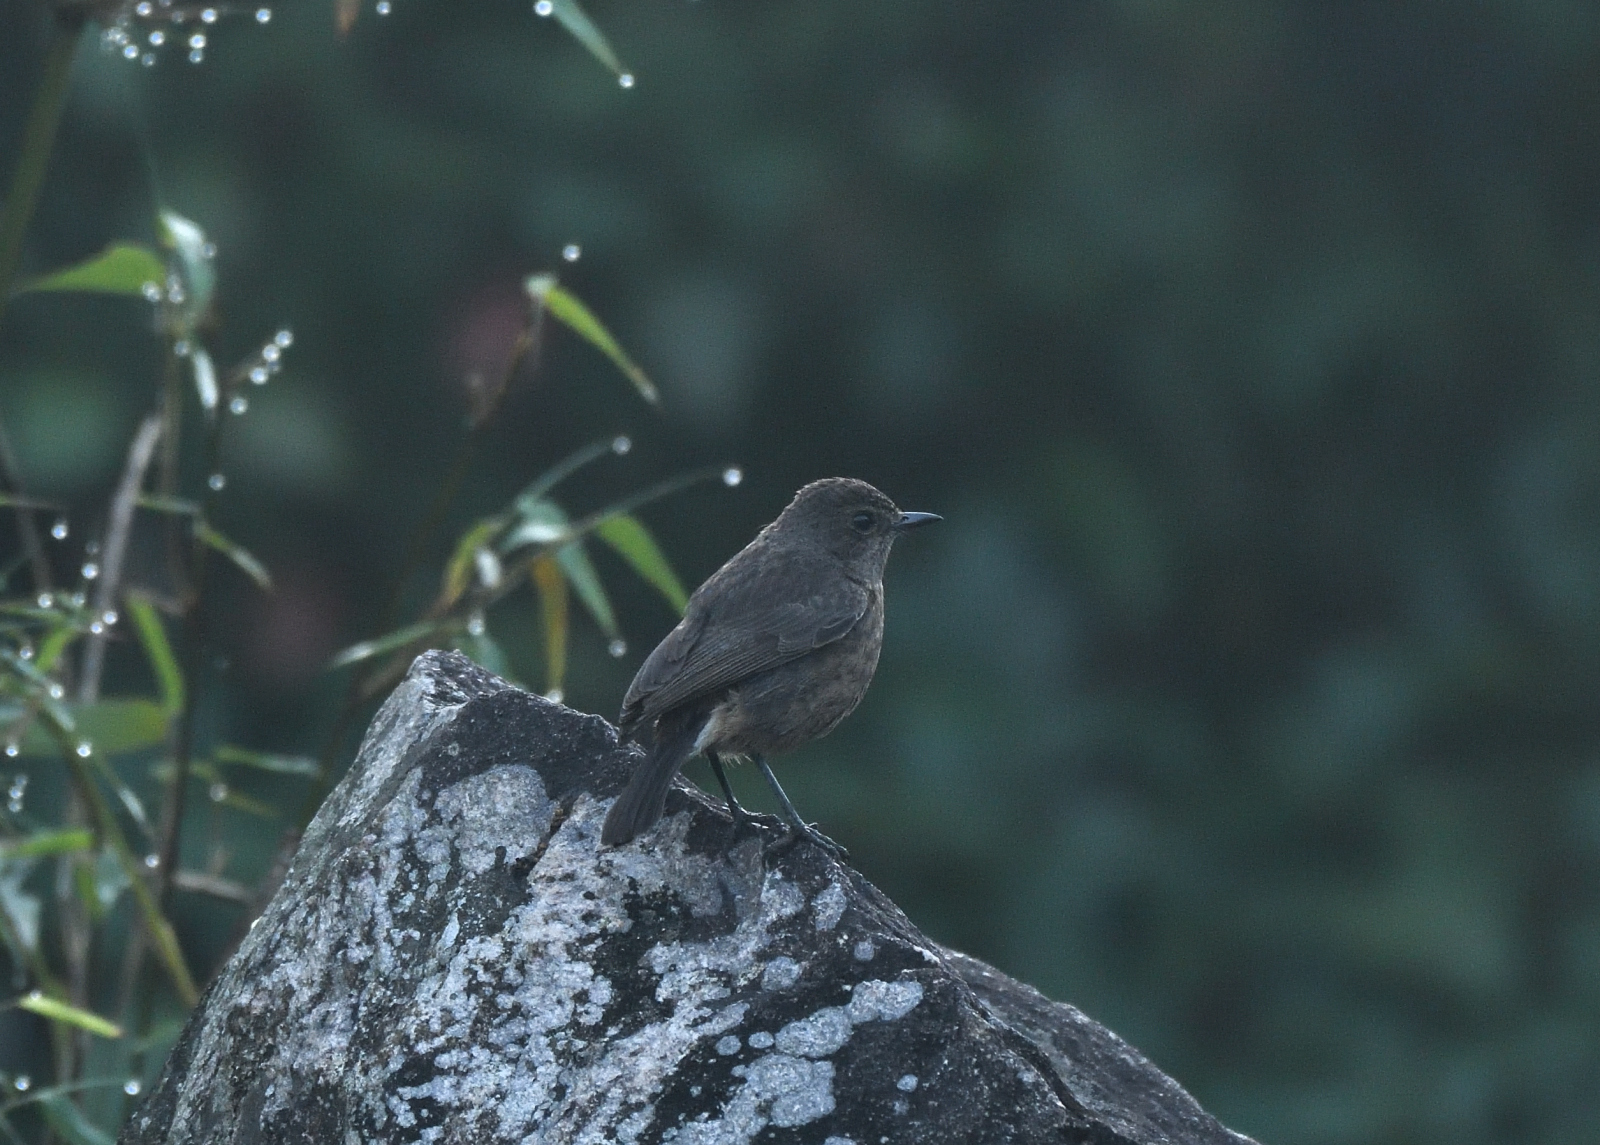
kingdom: Animalia
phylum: Chordata
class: Aves
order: Passeriformes
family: Muscicapidae
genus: Saxicola
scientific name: Saxicola caprata
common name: Pied bush chat
